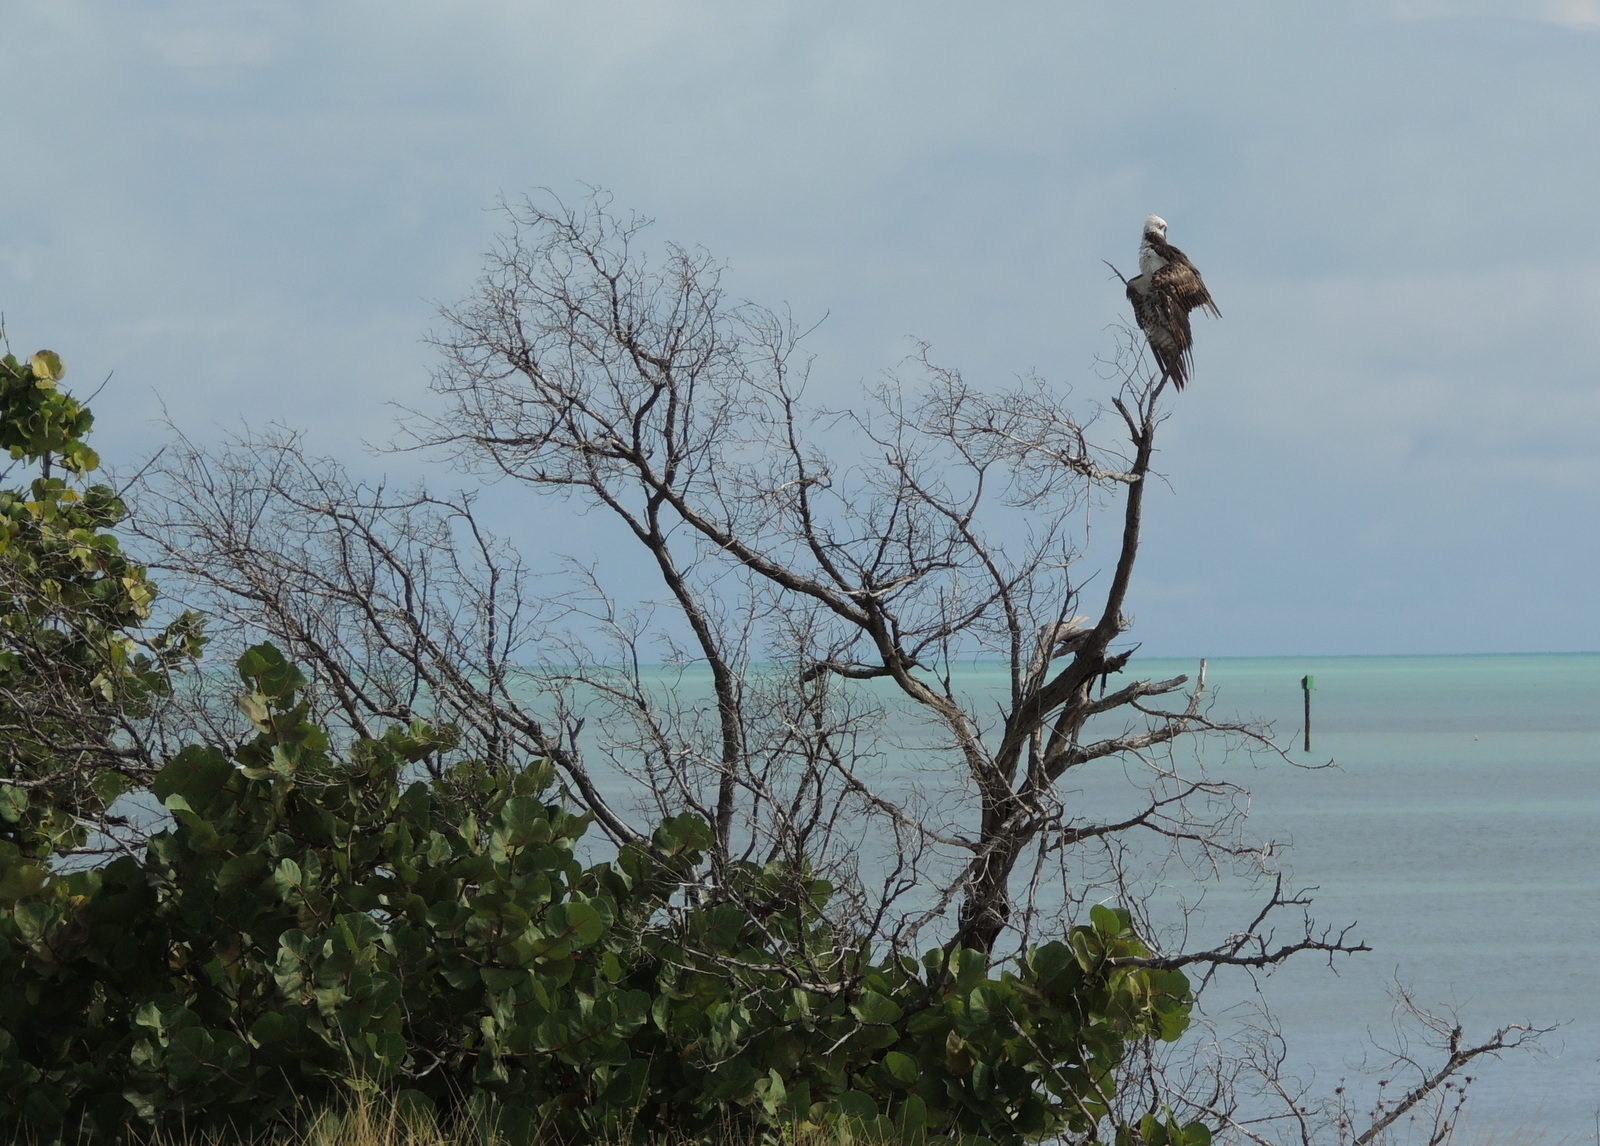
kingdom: Animalia
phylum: Chordata
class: Aves
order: Accipitriformes
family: Pandionidae
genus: Pandion
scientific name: Pandion haliaetus
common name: Osprey
